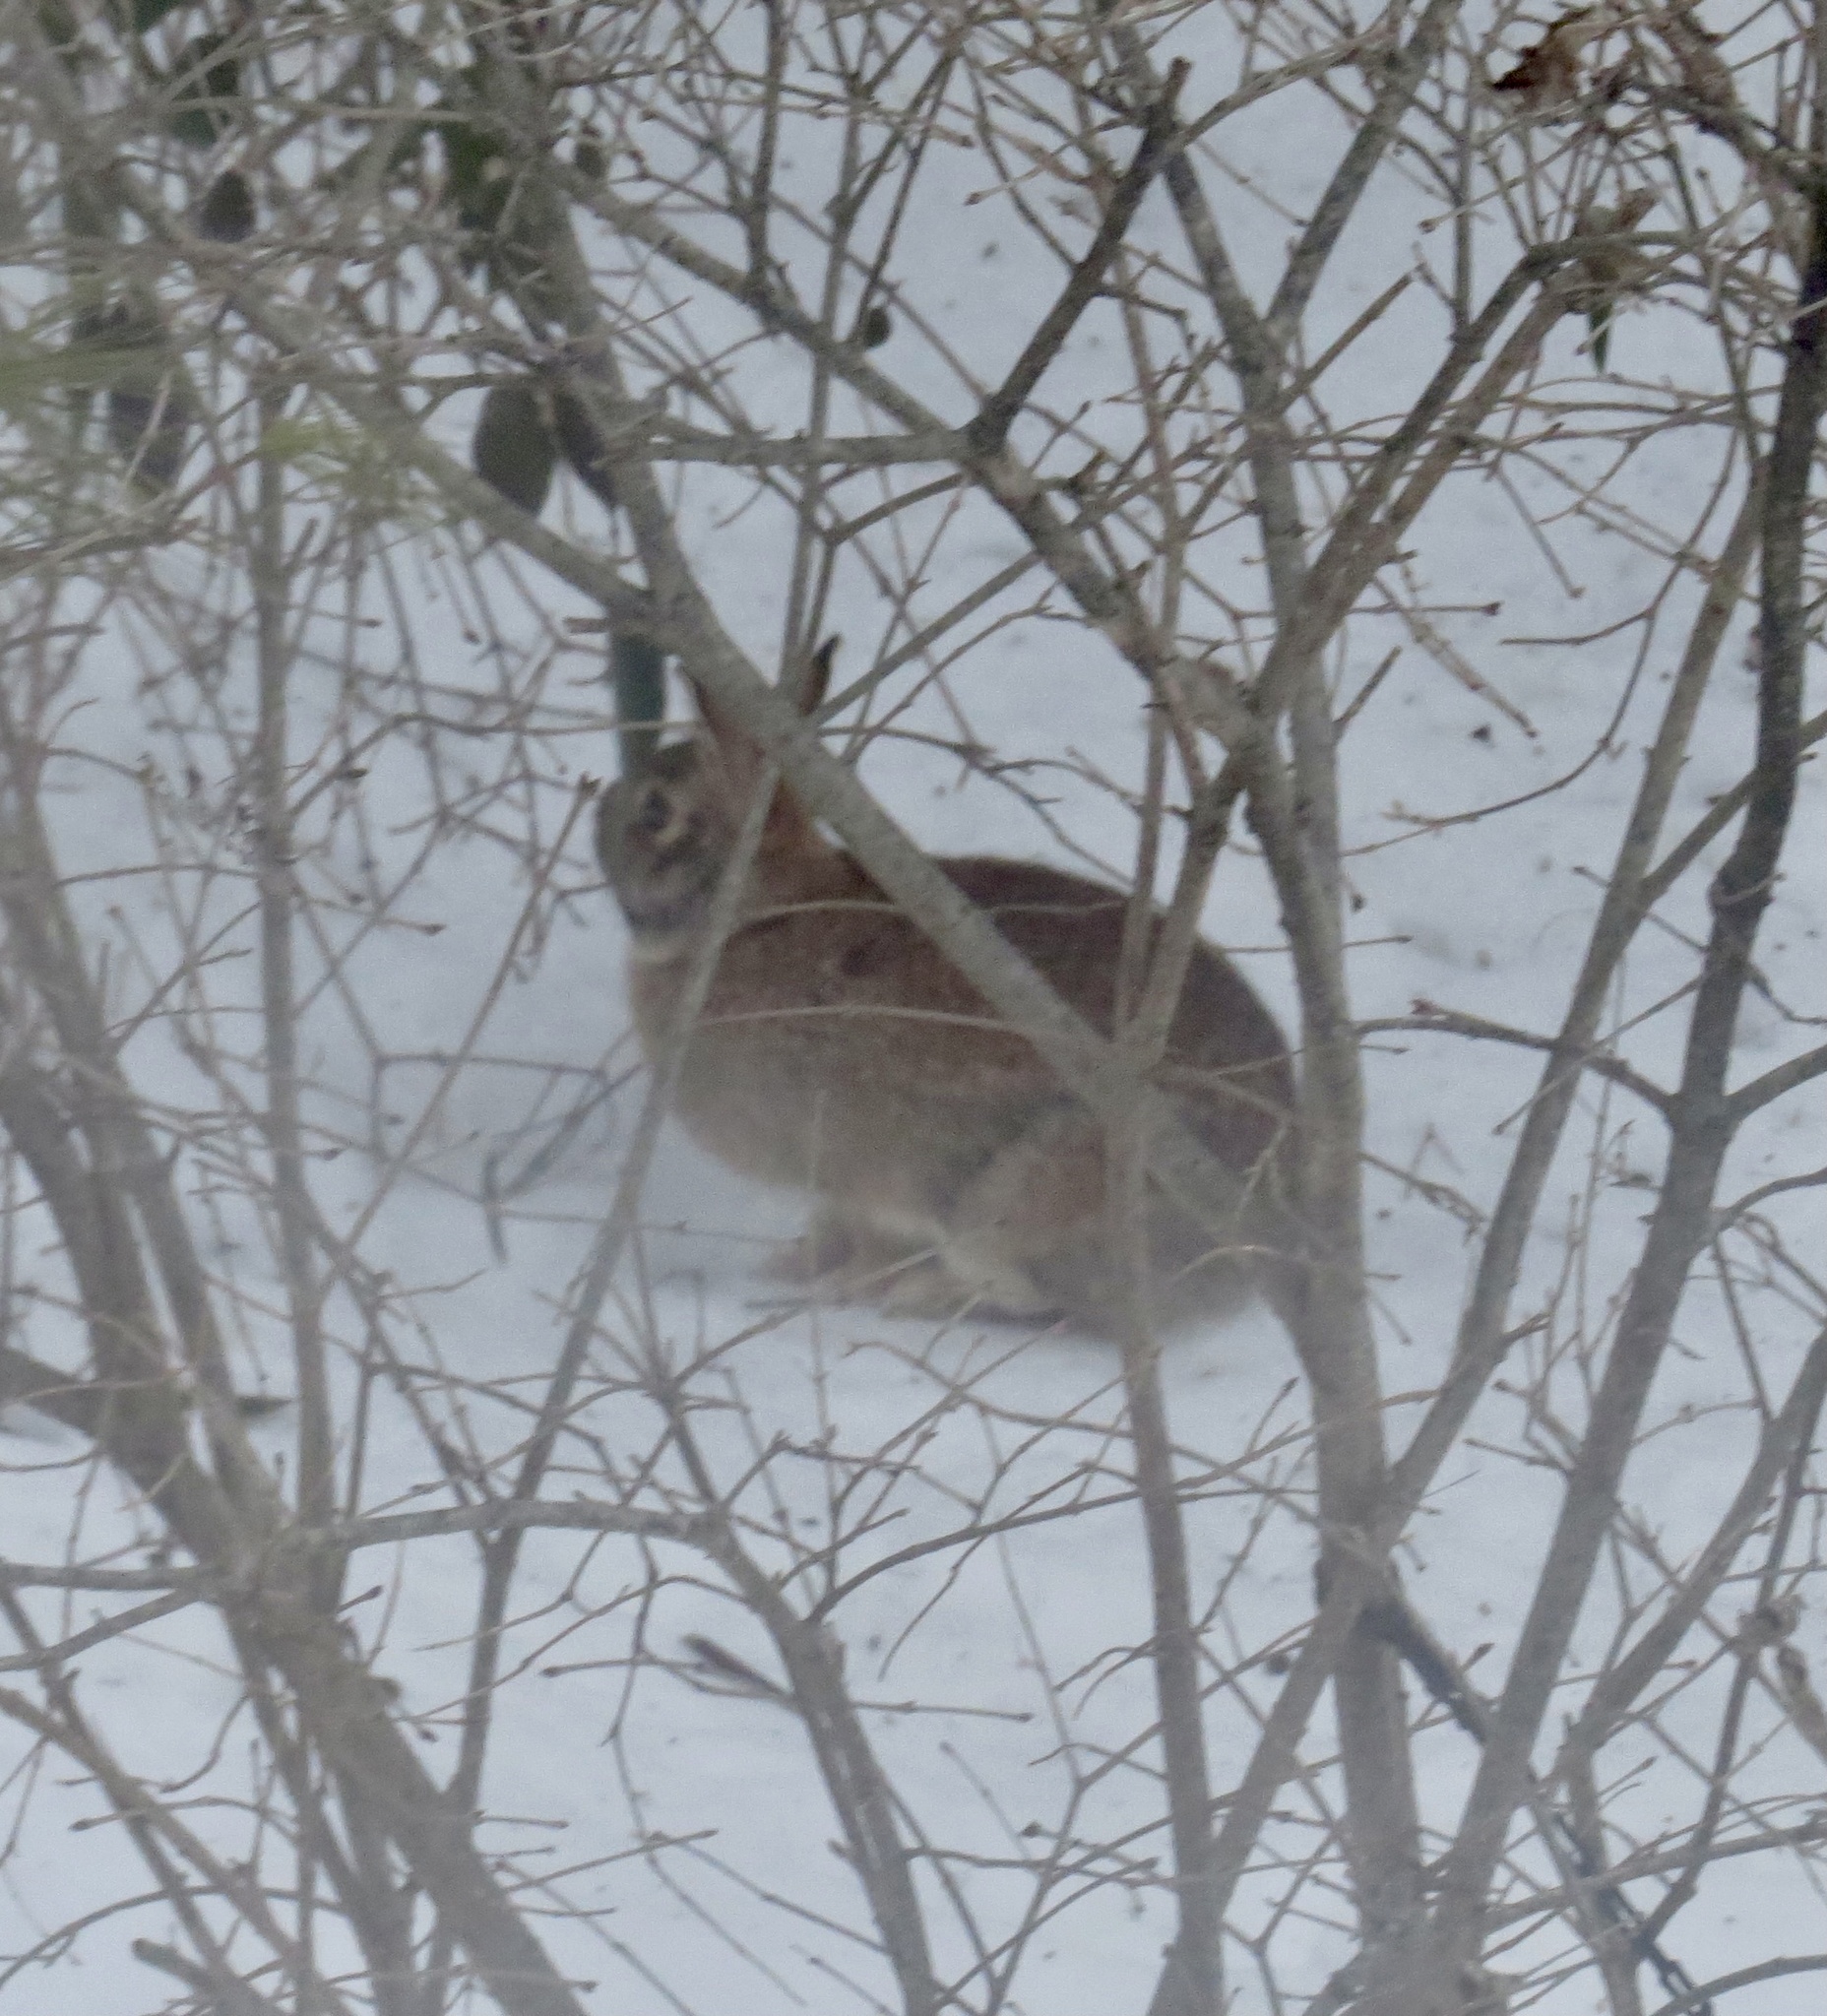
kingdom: Animalia
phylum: Chordata
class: Mammalia
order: Lagomorpha
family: Leporidae
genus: Sylvilagus
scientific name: Sylvilagus floridanus
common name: Eastern cottontail
